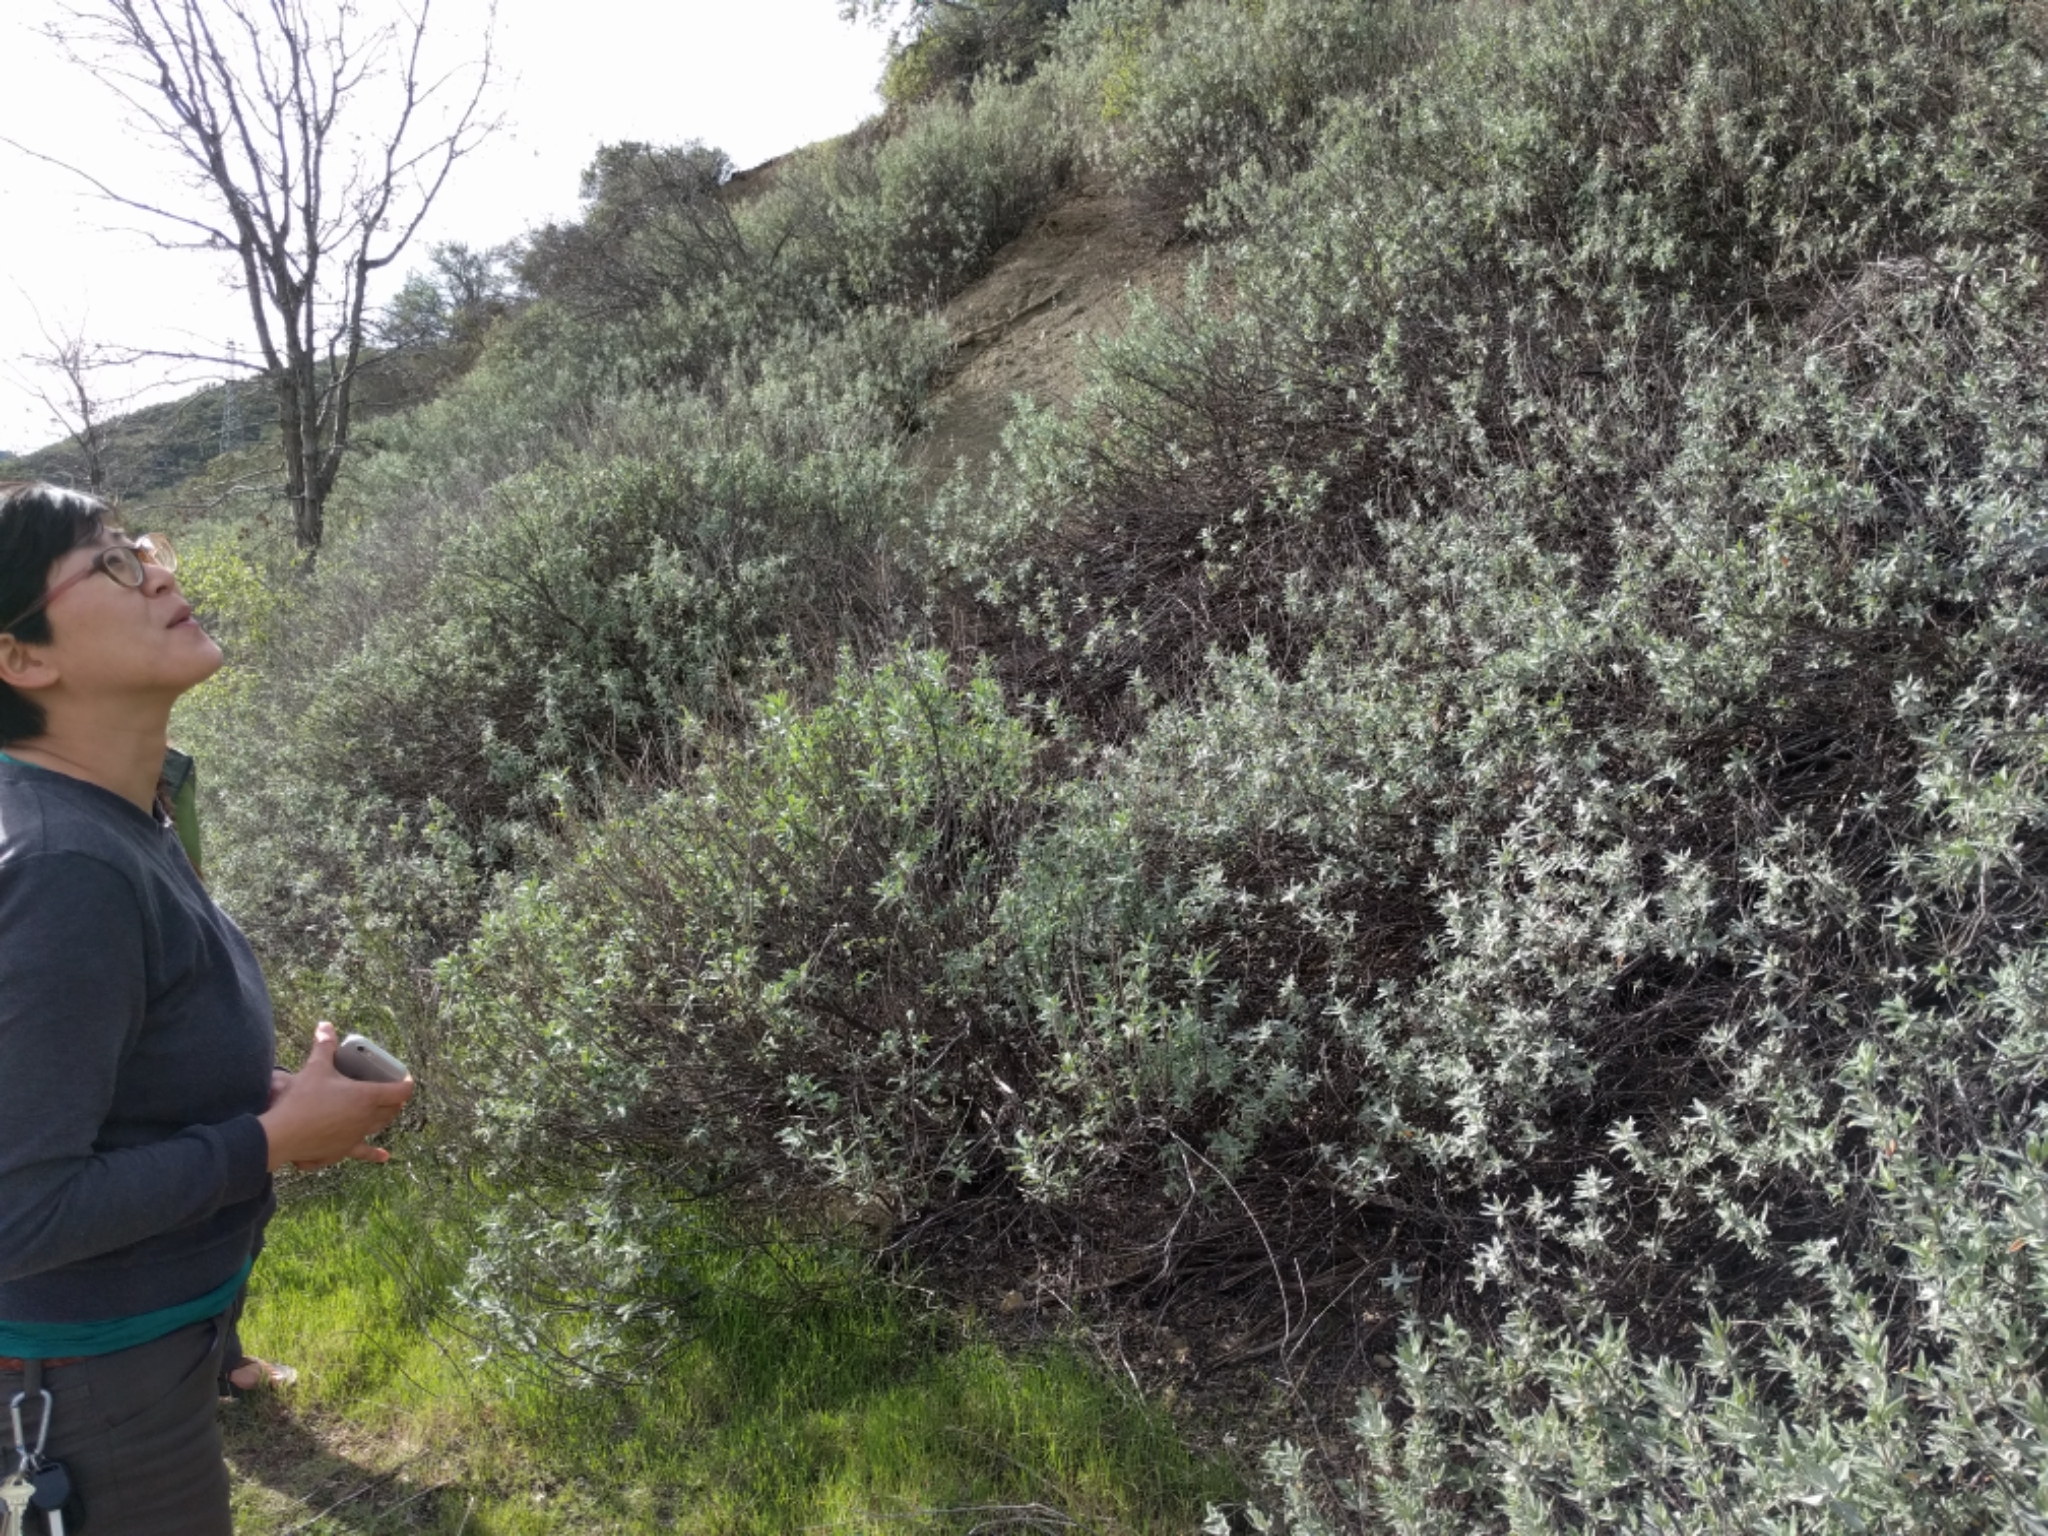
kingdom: Plantae
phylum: Tracheophyta
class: Magnoliopsida
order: Lamiales
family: Lamiaceae
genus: Salvia
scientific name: Salvia leucophylla
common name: Purple sage
